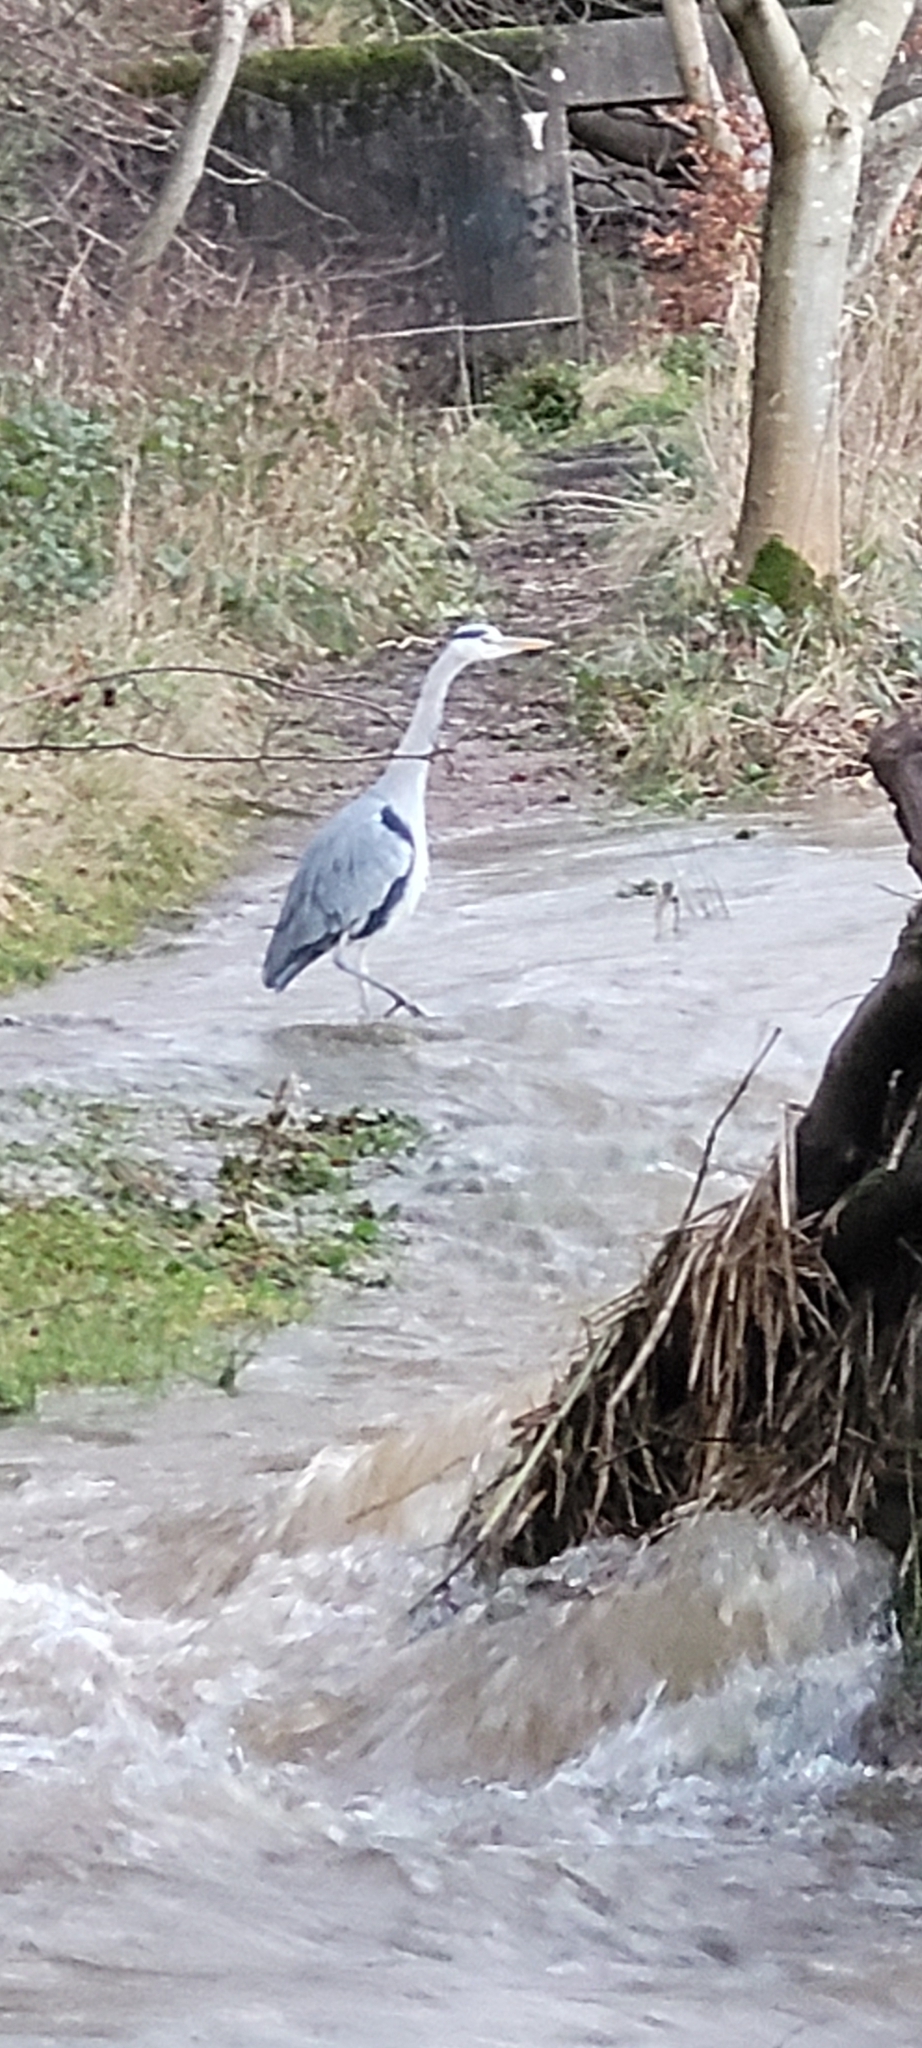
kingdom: Animalia
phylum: Chordata
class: Aves
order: Pelecaniformes
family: Ardeidae
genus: Ardea
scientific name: Ardea cinerea
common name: Grey heron
